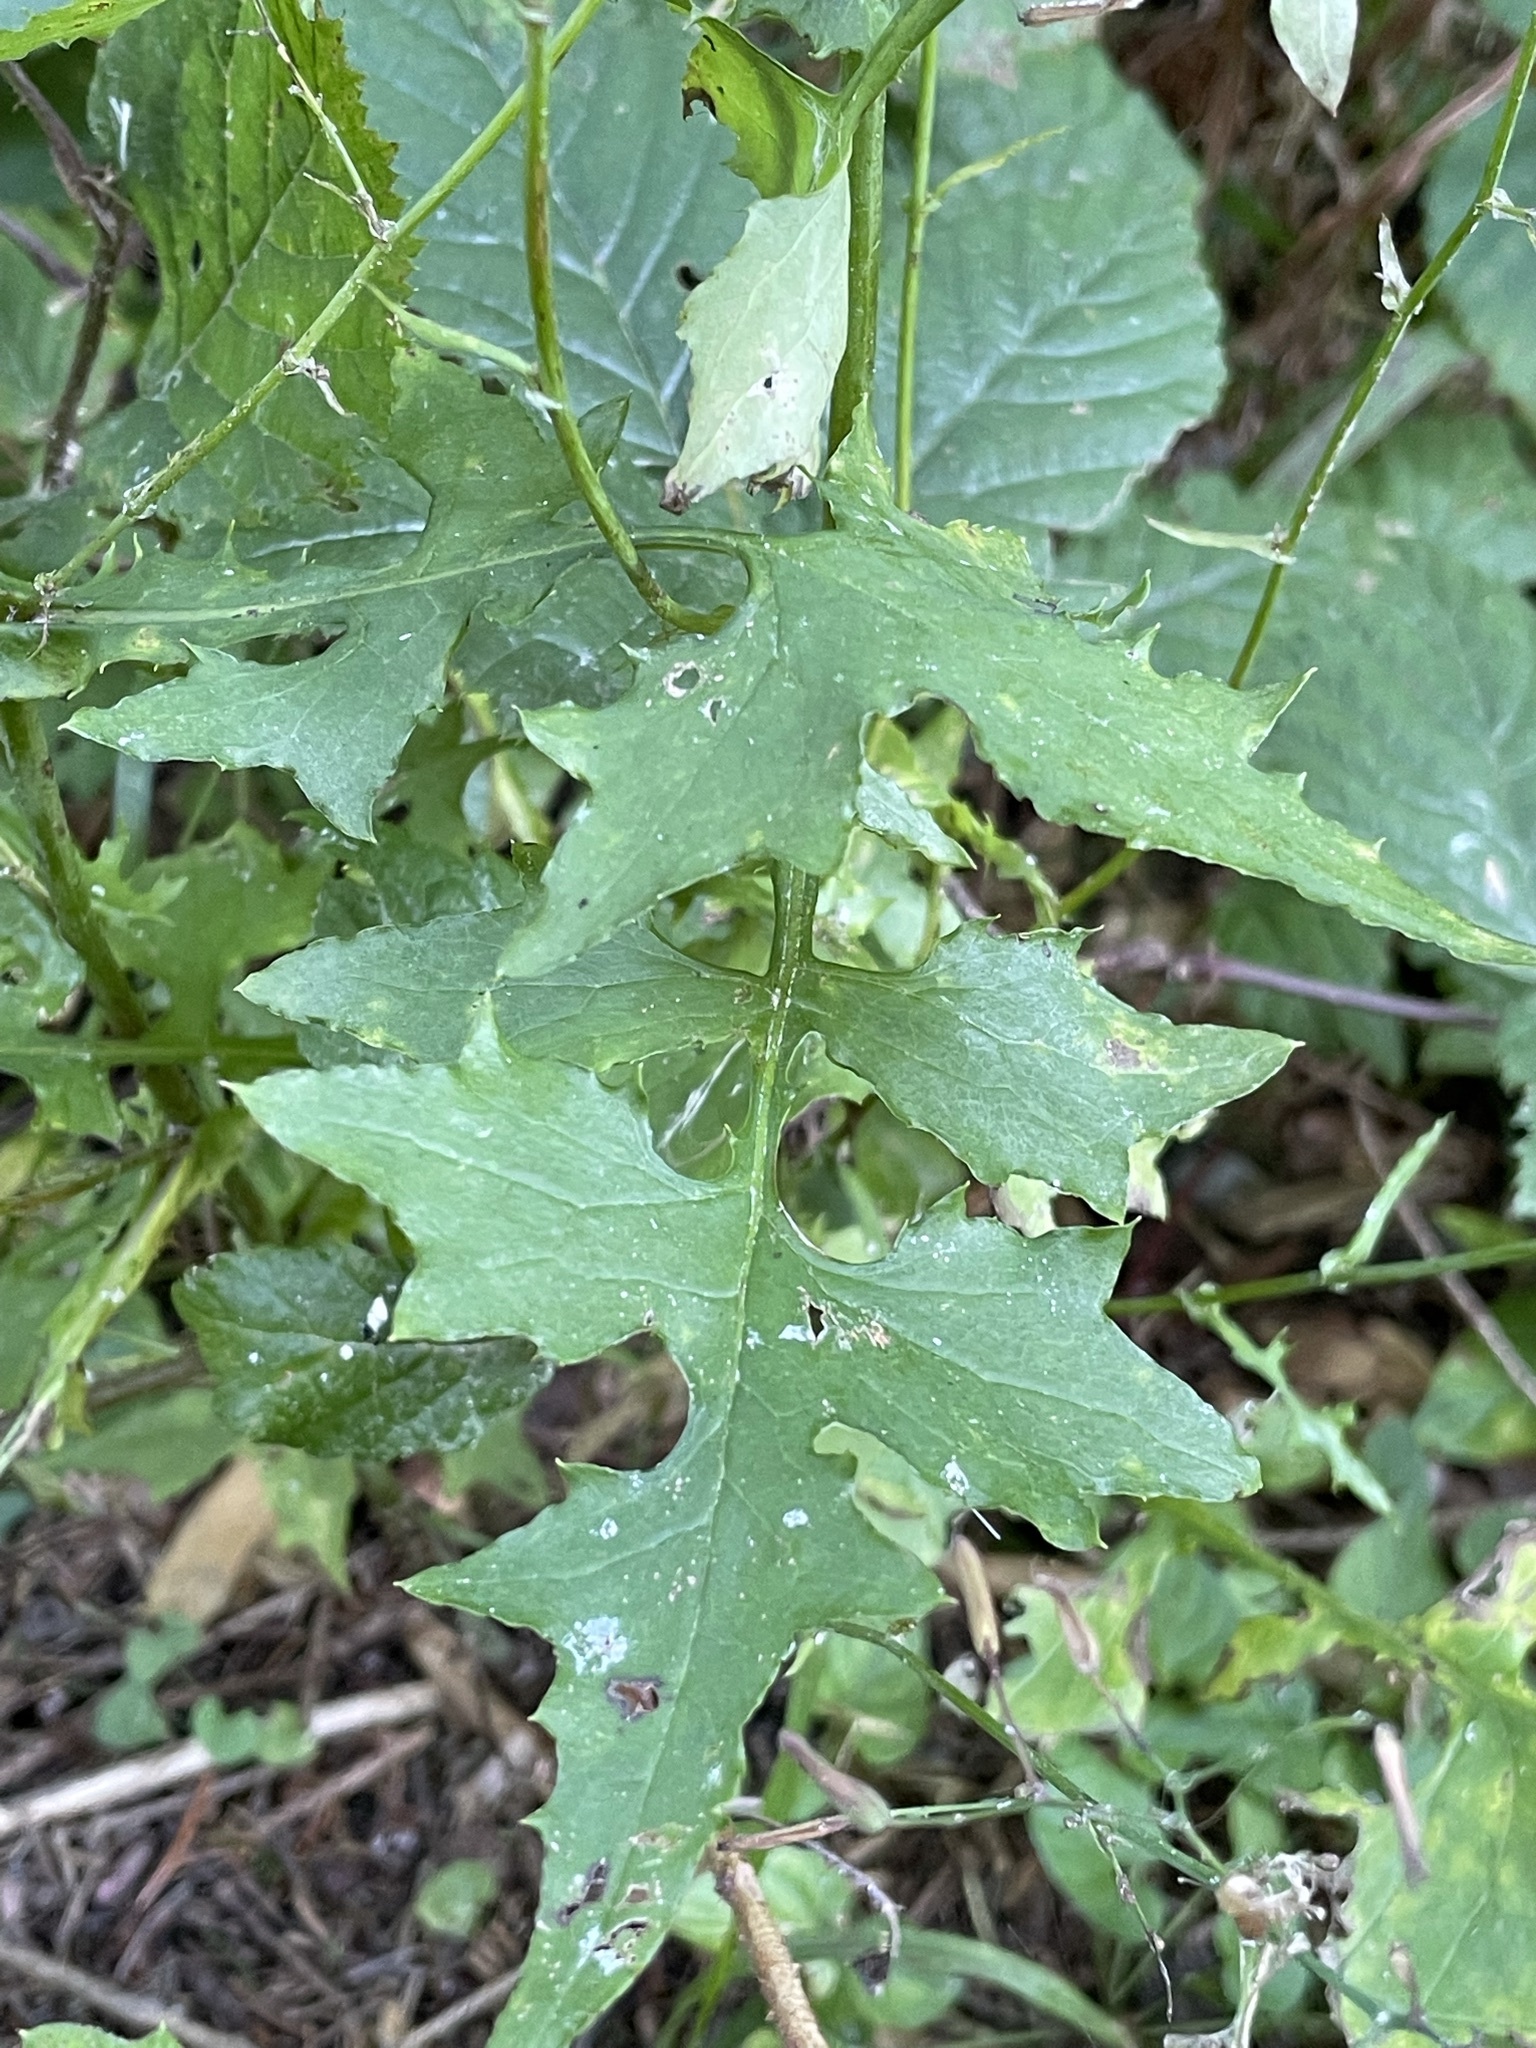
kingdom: Plantae
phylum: Tracheophyta
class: Magnoliopsida
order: Asterales
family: Asteraceae
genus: Mycelis
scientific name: Mycelis muralis
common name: Wall lettuce
